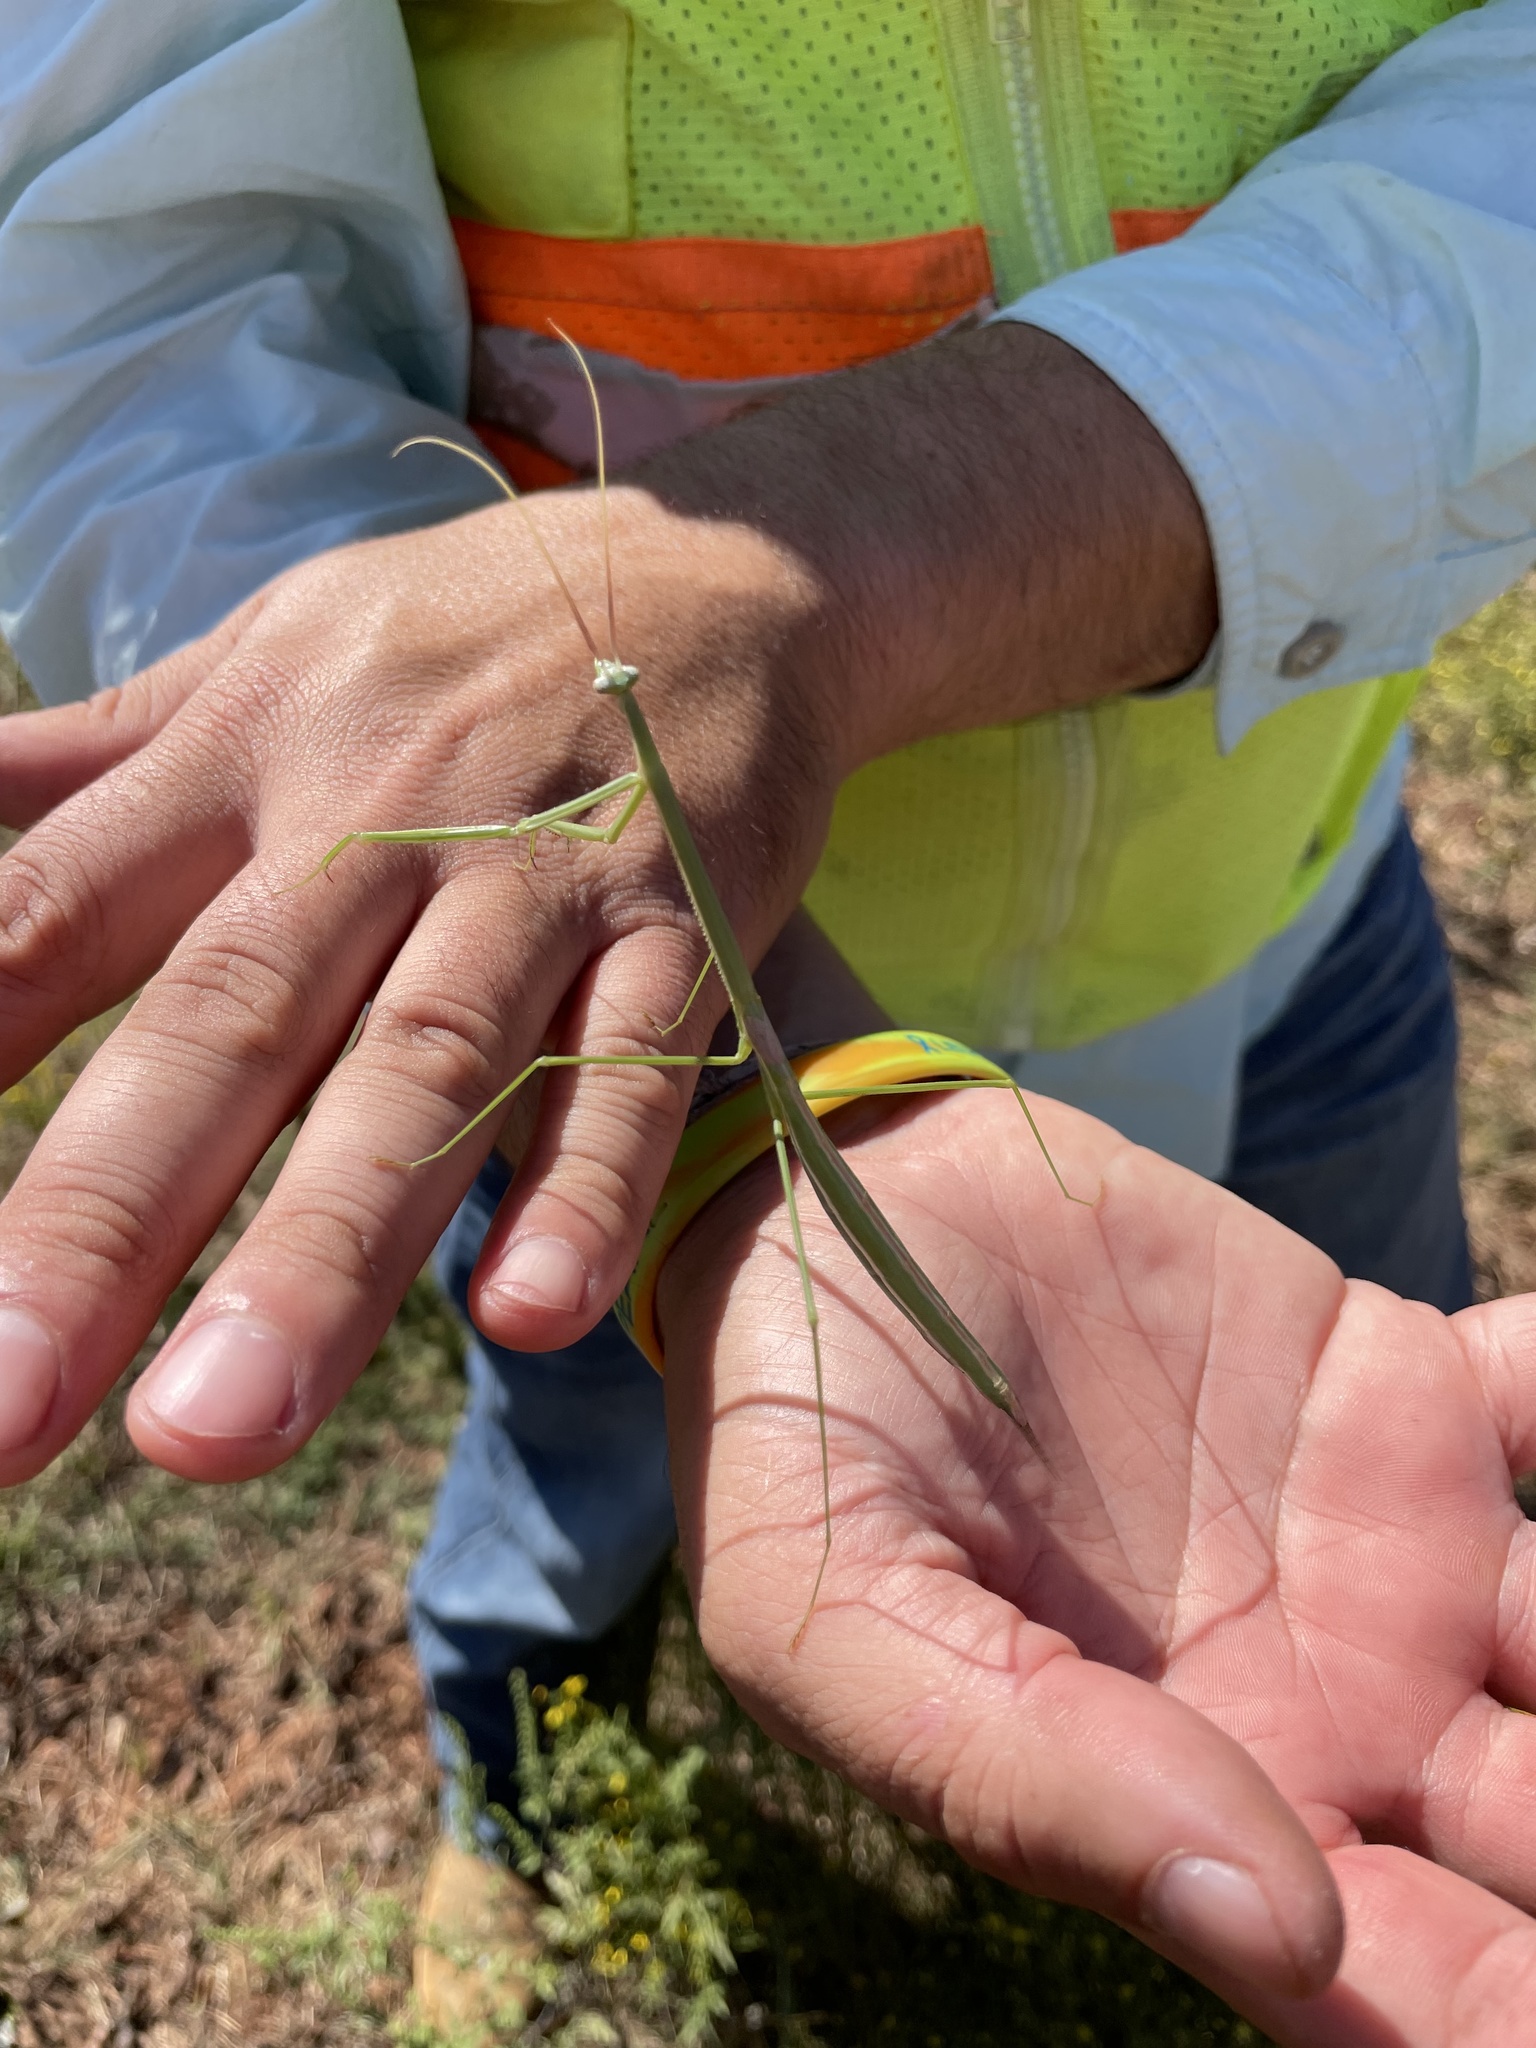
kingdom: Animalia
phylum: Arthropoda
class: Insecta
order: Mantodea
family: Coptopterygidae
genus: Brunneria
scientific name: Brunneria borealis
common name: Mantis
